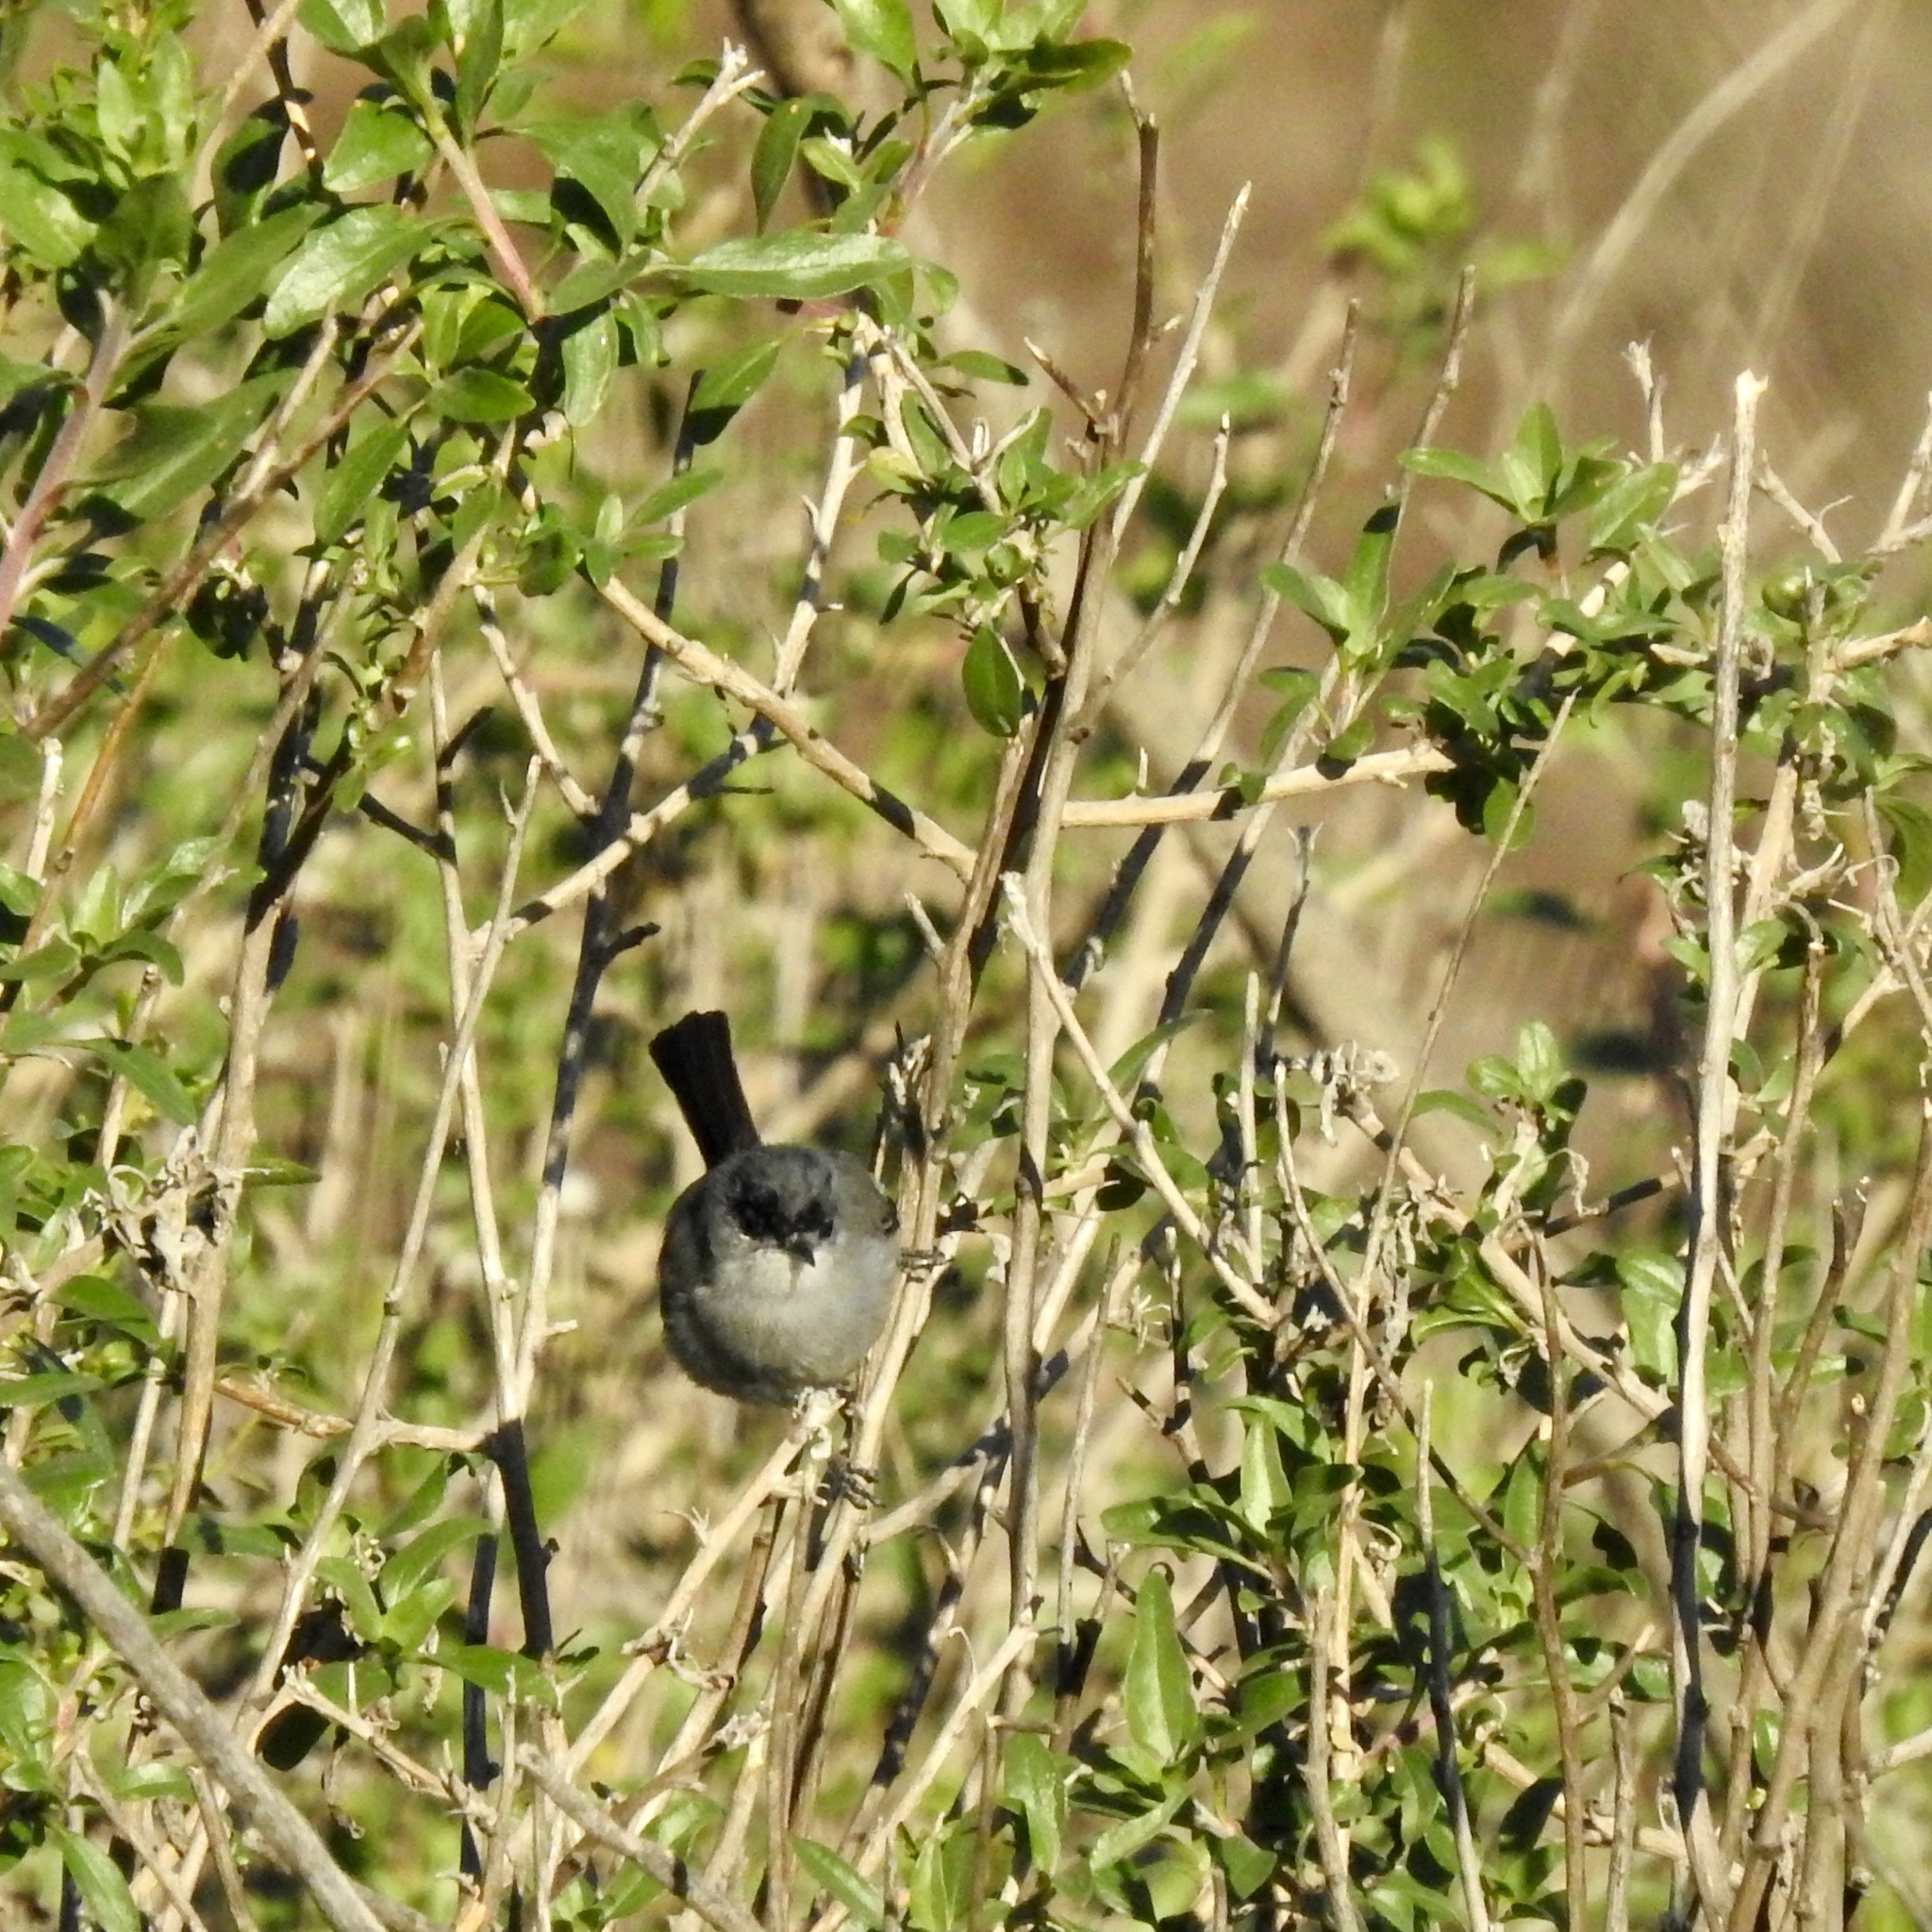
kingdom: Animalia
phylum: Chordata
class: Aves
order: Passeriformes
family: Polioptilidae
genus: Polioptila
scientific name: Polioptila californica
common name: California gnatcatcher
